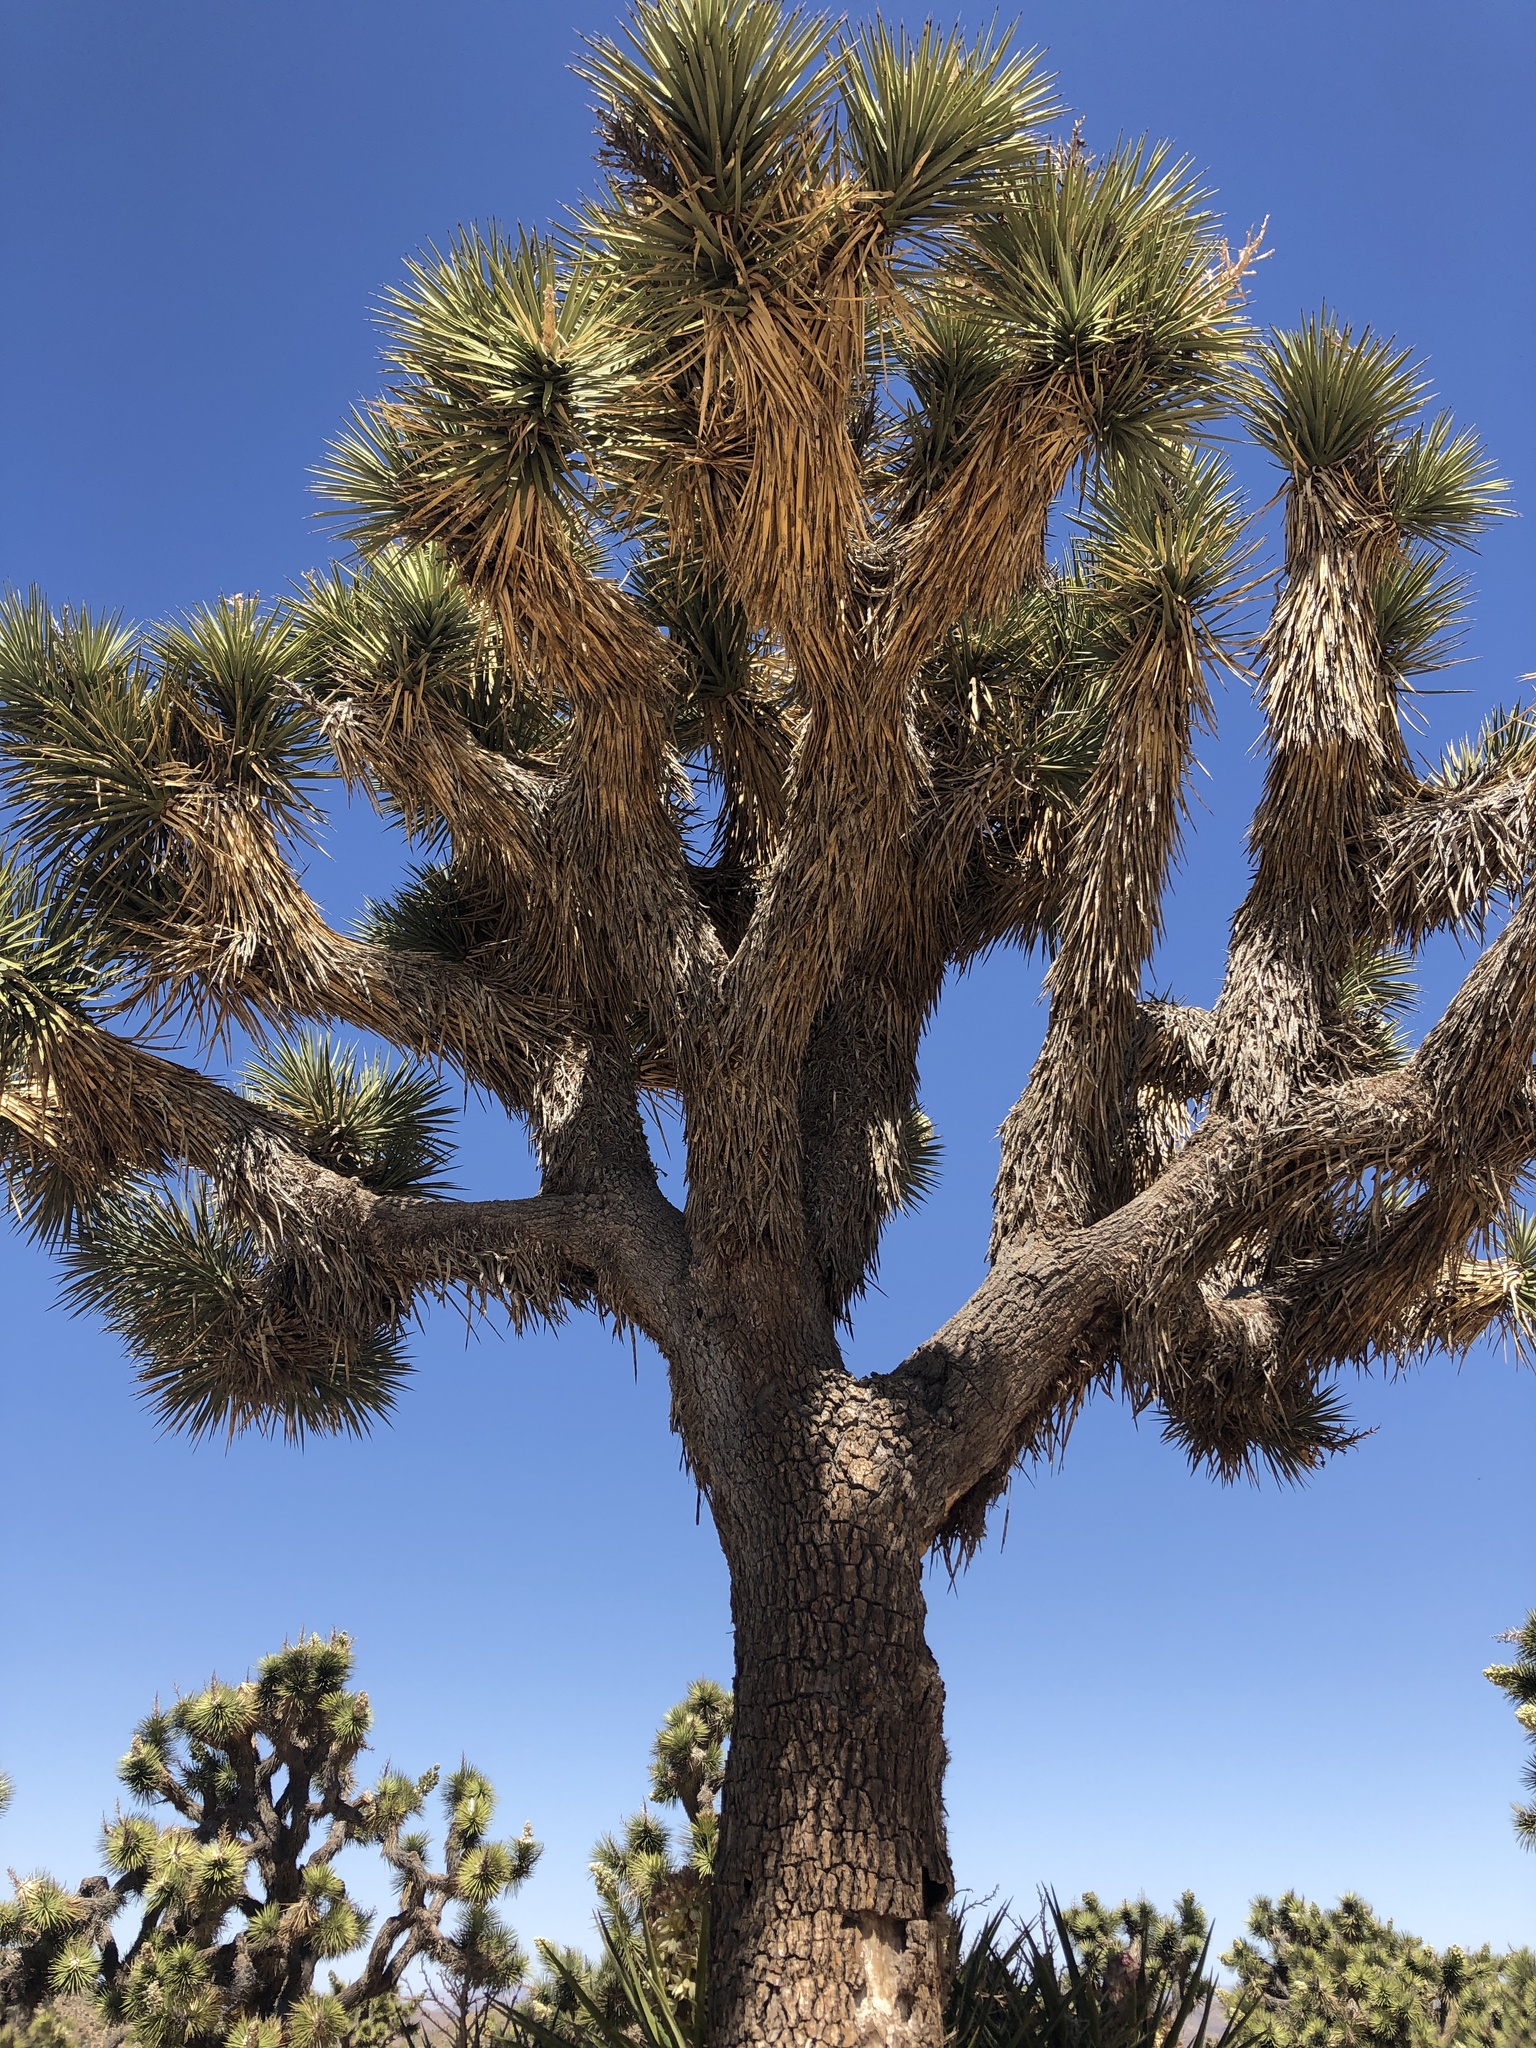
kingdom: Plantae
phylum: Tracheophyta
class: Liliopsida
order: Asparagales
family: Asparagaceae
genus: Yucca
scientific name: Yucca brevifolia
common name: Joshua tree
